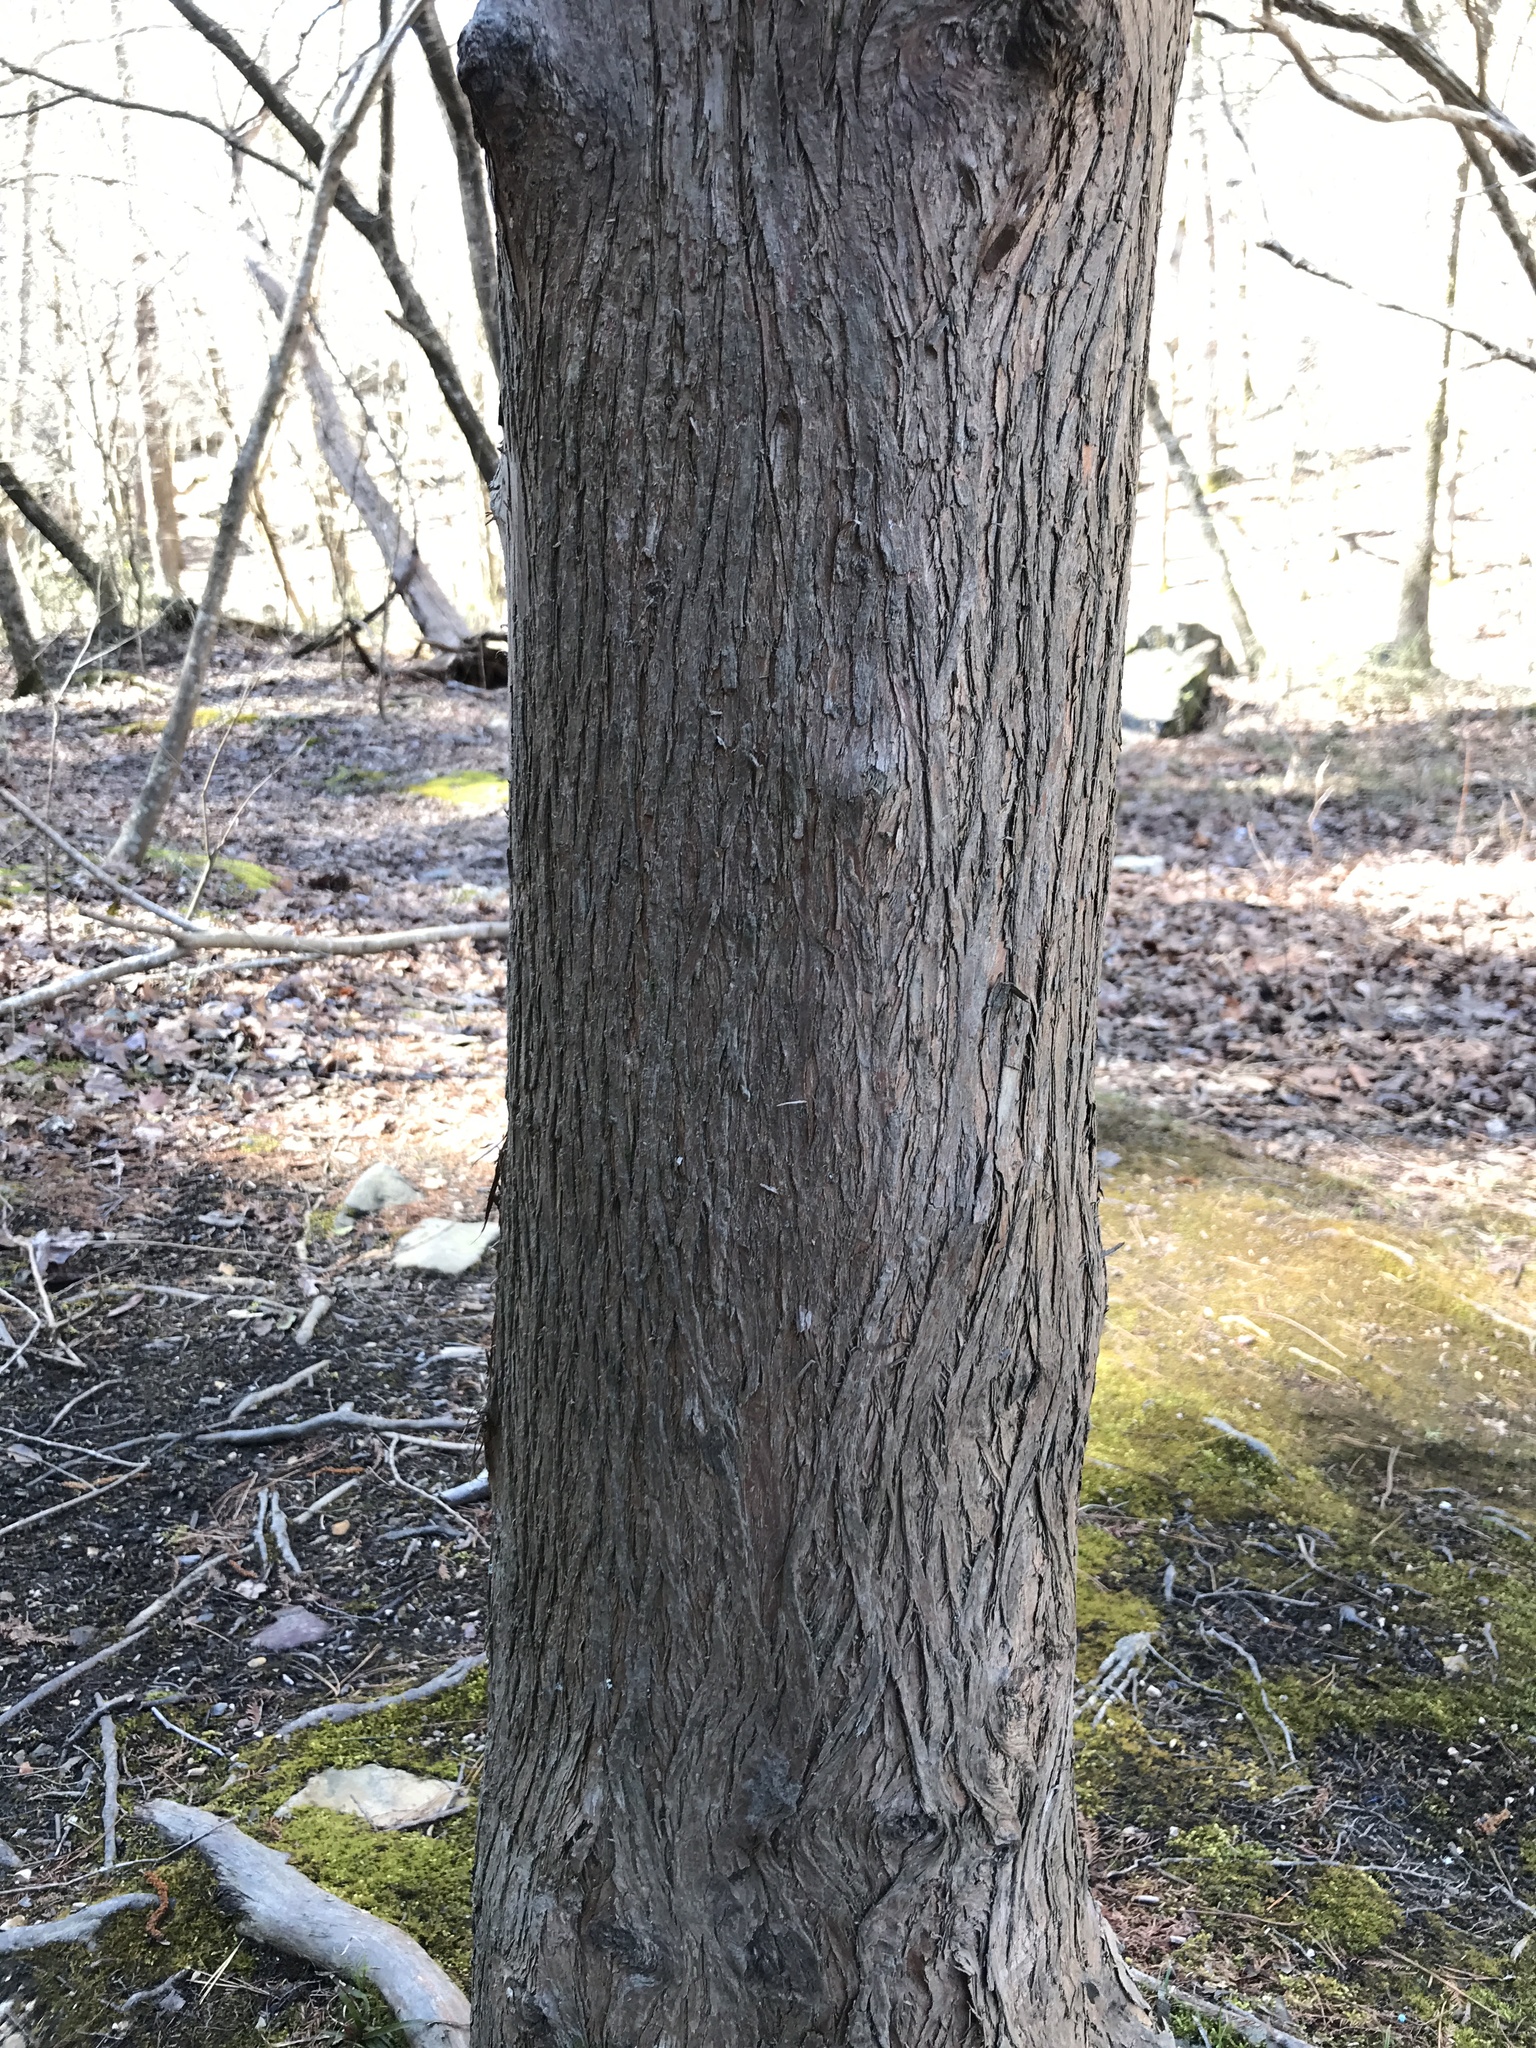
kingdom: Plantae
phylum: Tracheophyta
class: Pinopsida
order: Pinales
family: Cupressaceae
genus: Taxodium
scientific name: Taxodium distichum
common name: Bald cypress
